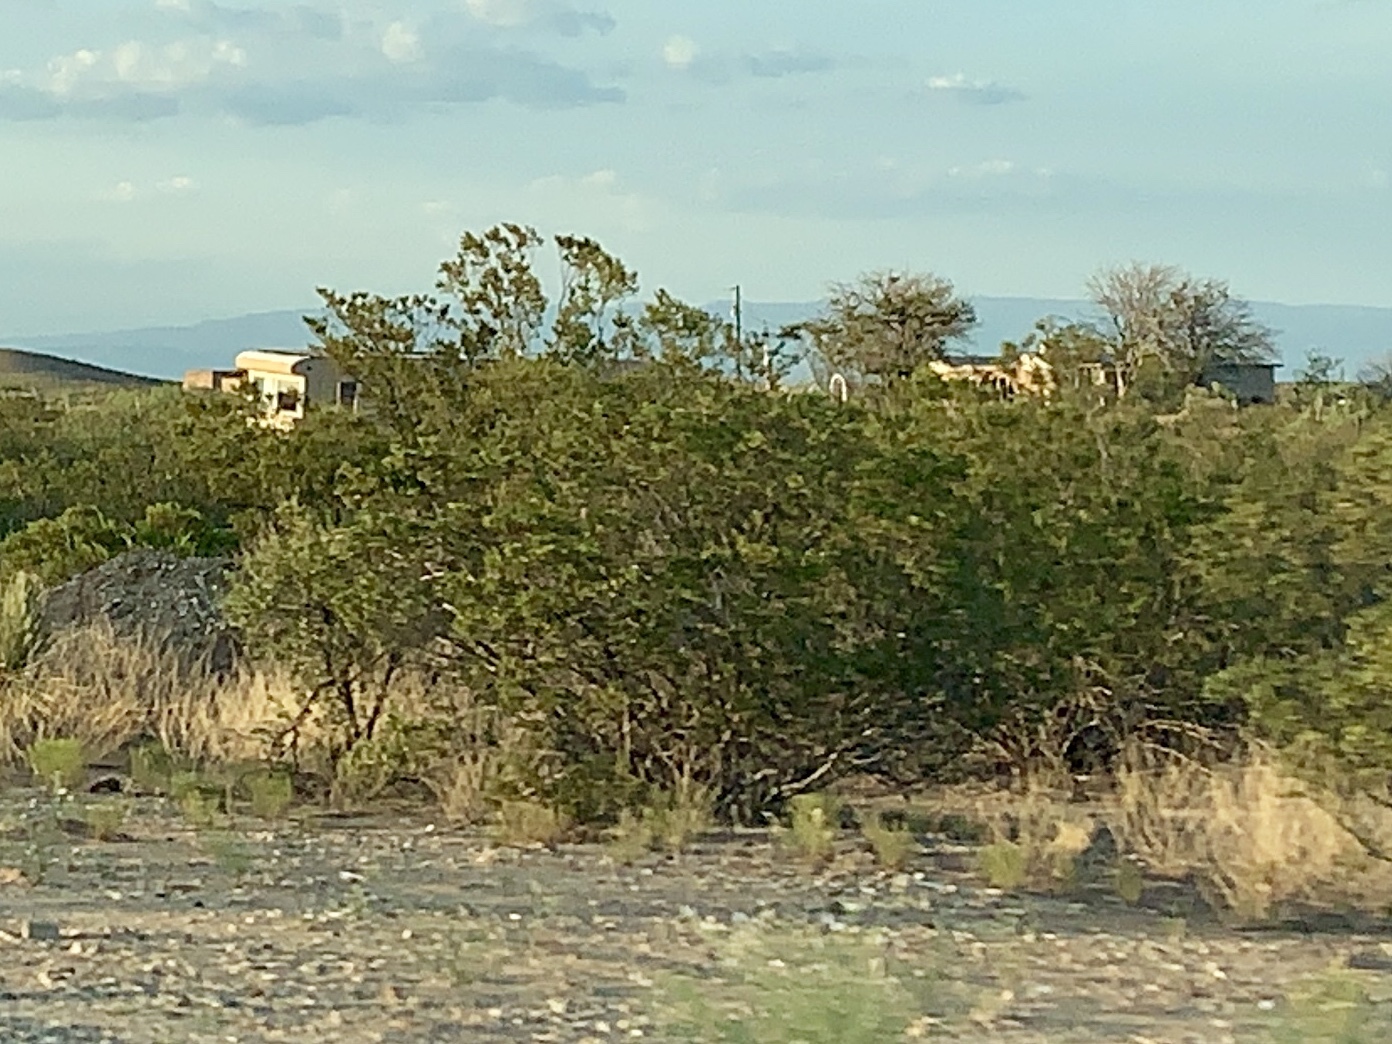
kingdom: Plantae
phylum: Tracheophyta
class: Magnoliopsida
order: Zygophyllales
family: Zygophyllaceae
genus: Larrea
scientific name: Larrea tridentata
